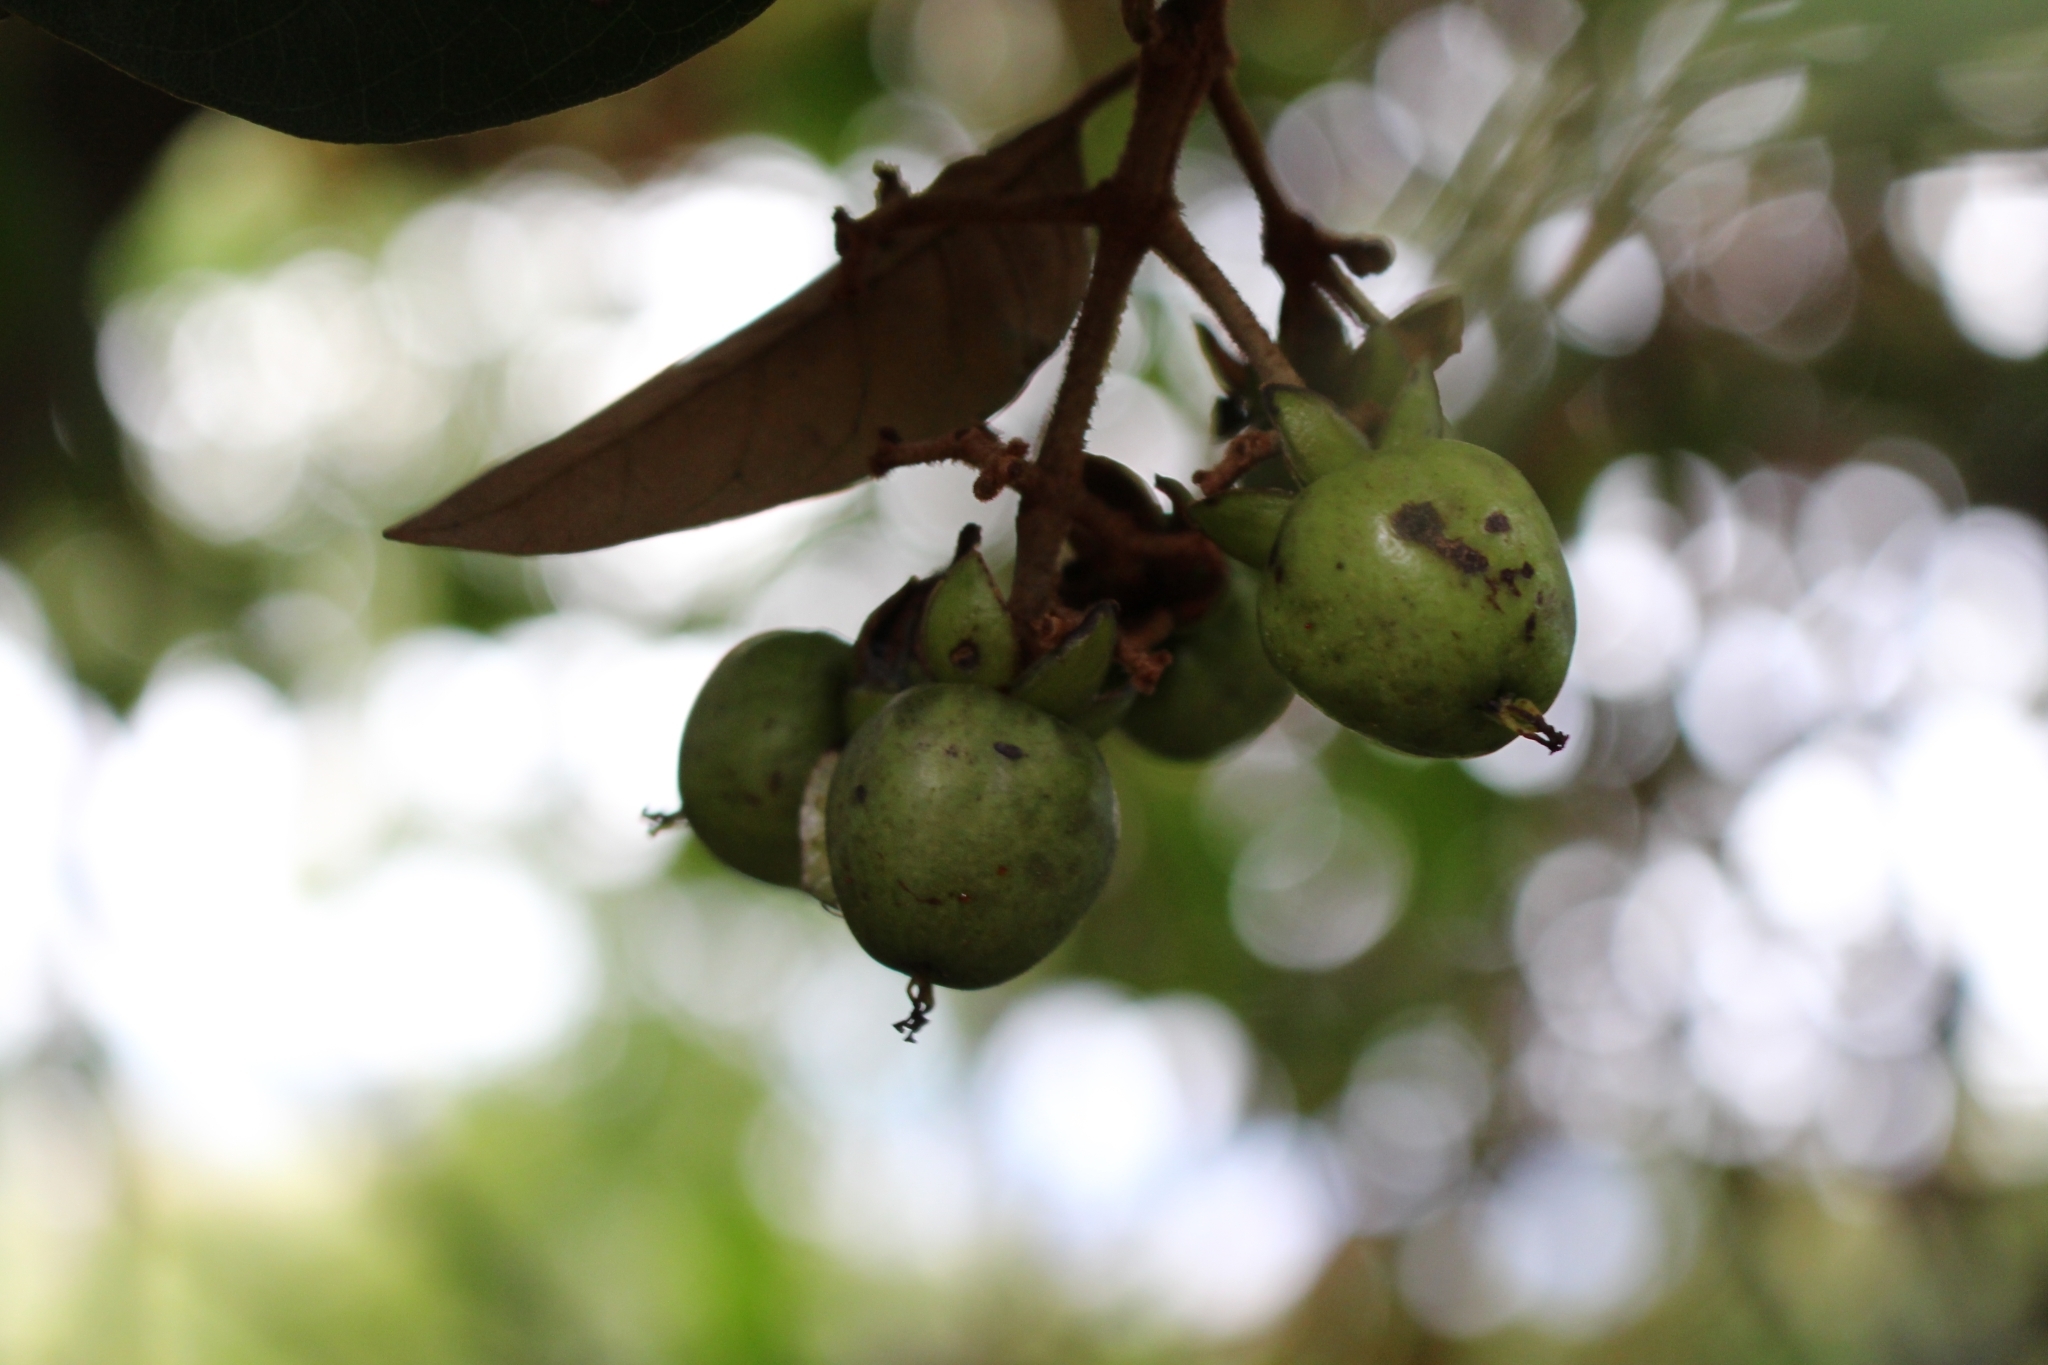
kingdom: Plantae
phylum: Tracheophyta
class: Magnoliopsida
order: Malpighiales
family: Hypericaceae
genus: Vismia
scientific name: Vismia baccifera
